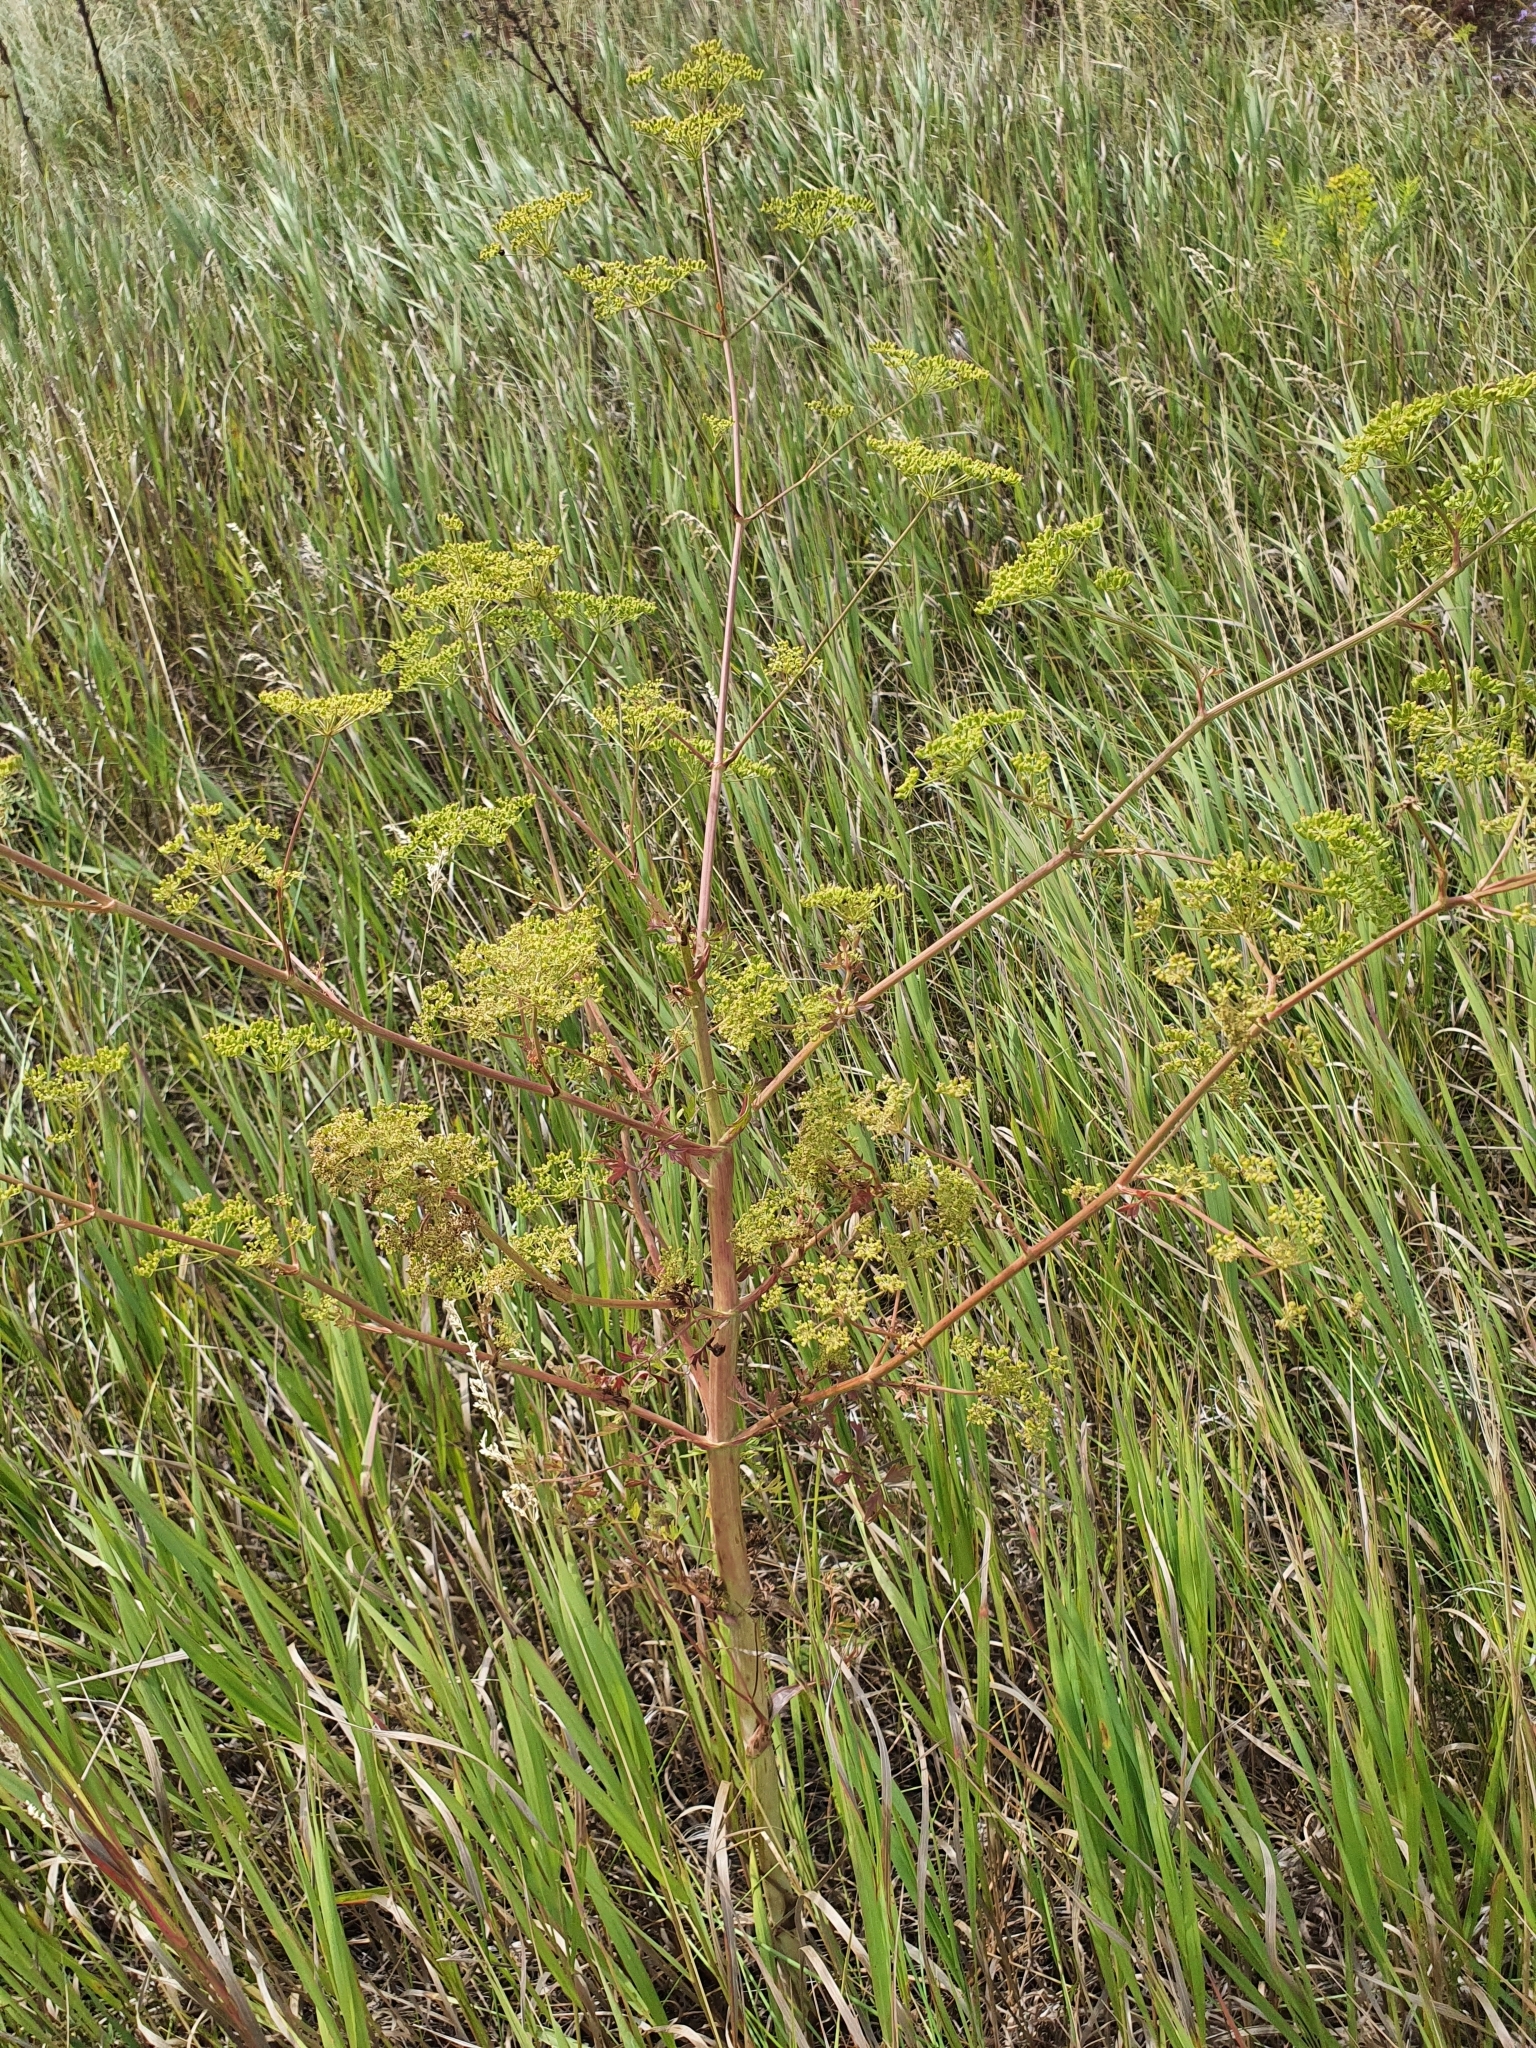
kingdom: Plantae
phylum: Tracheophyta
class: Magnoliopsida
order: Apiales
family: Apiaceae
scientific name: Apiaceae
